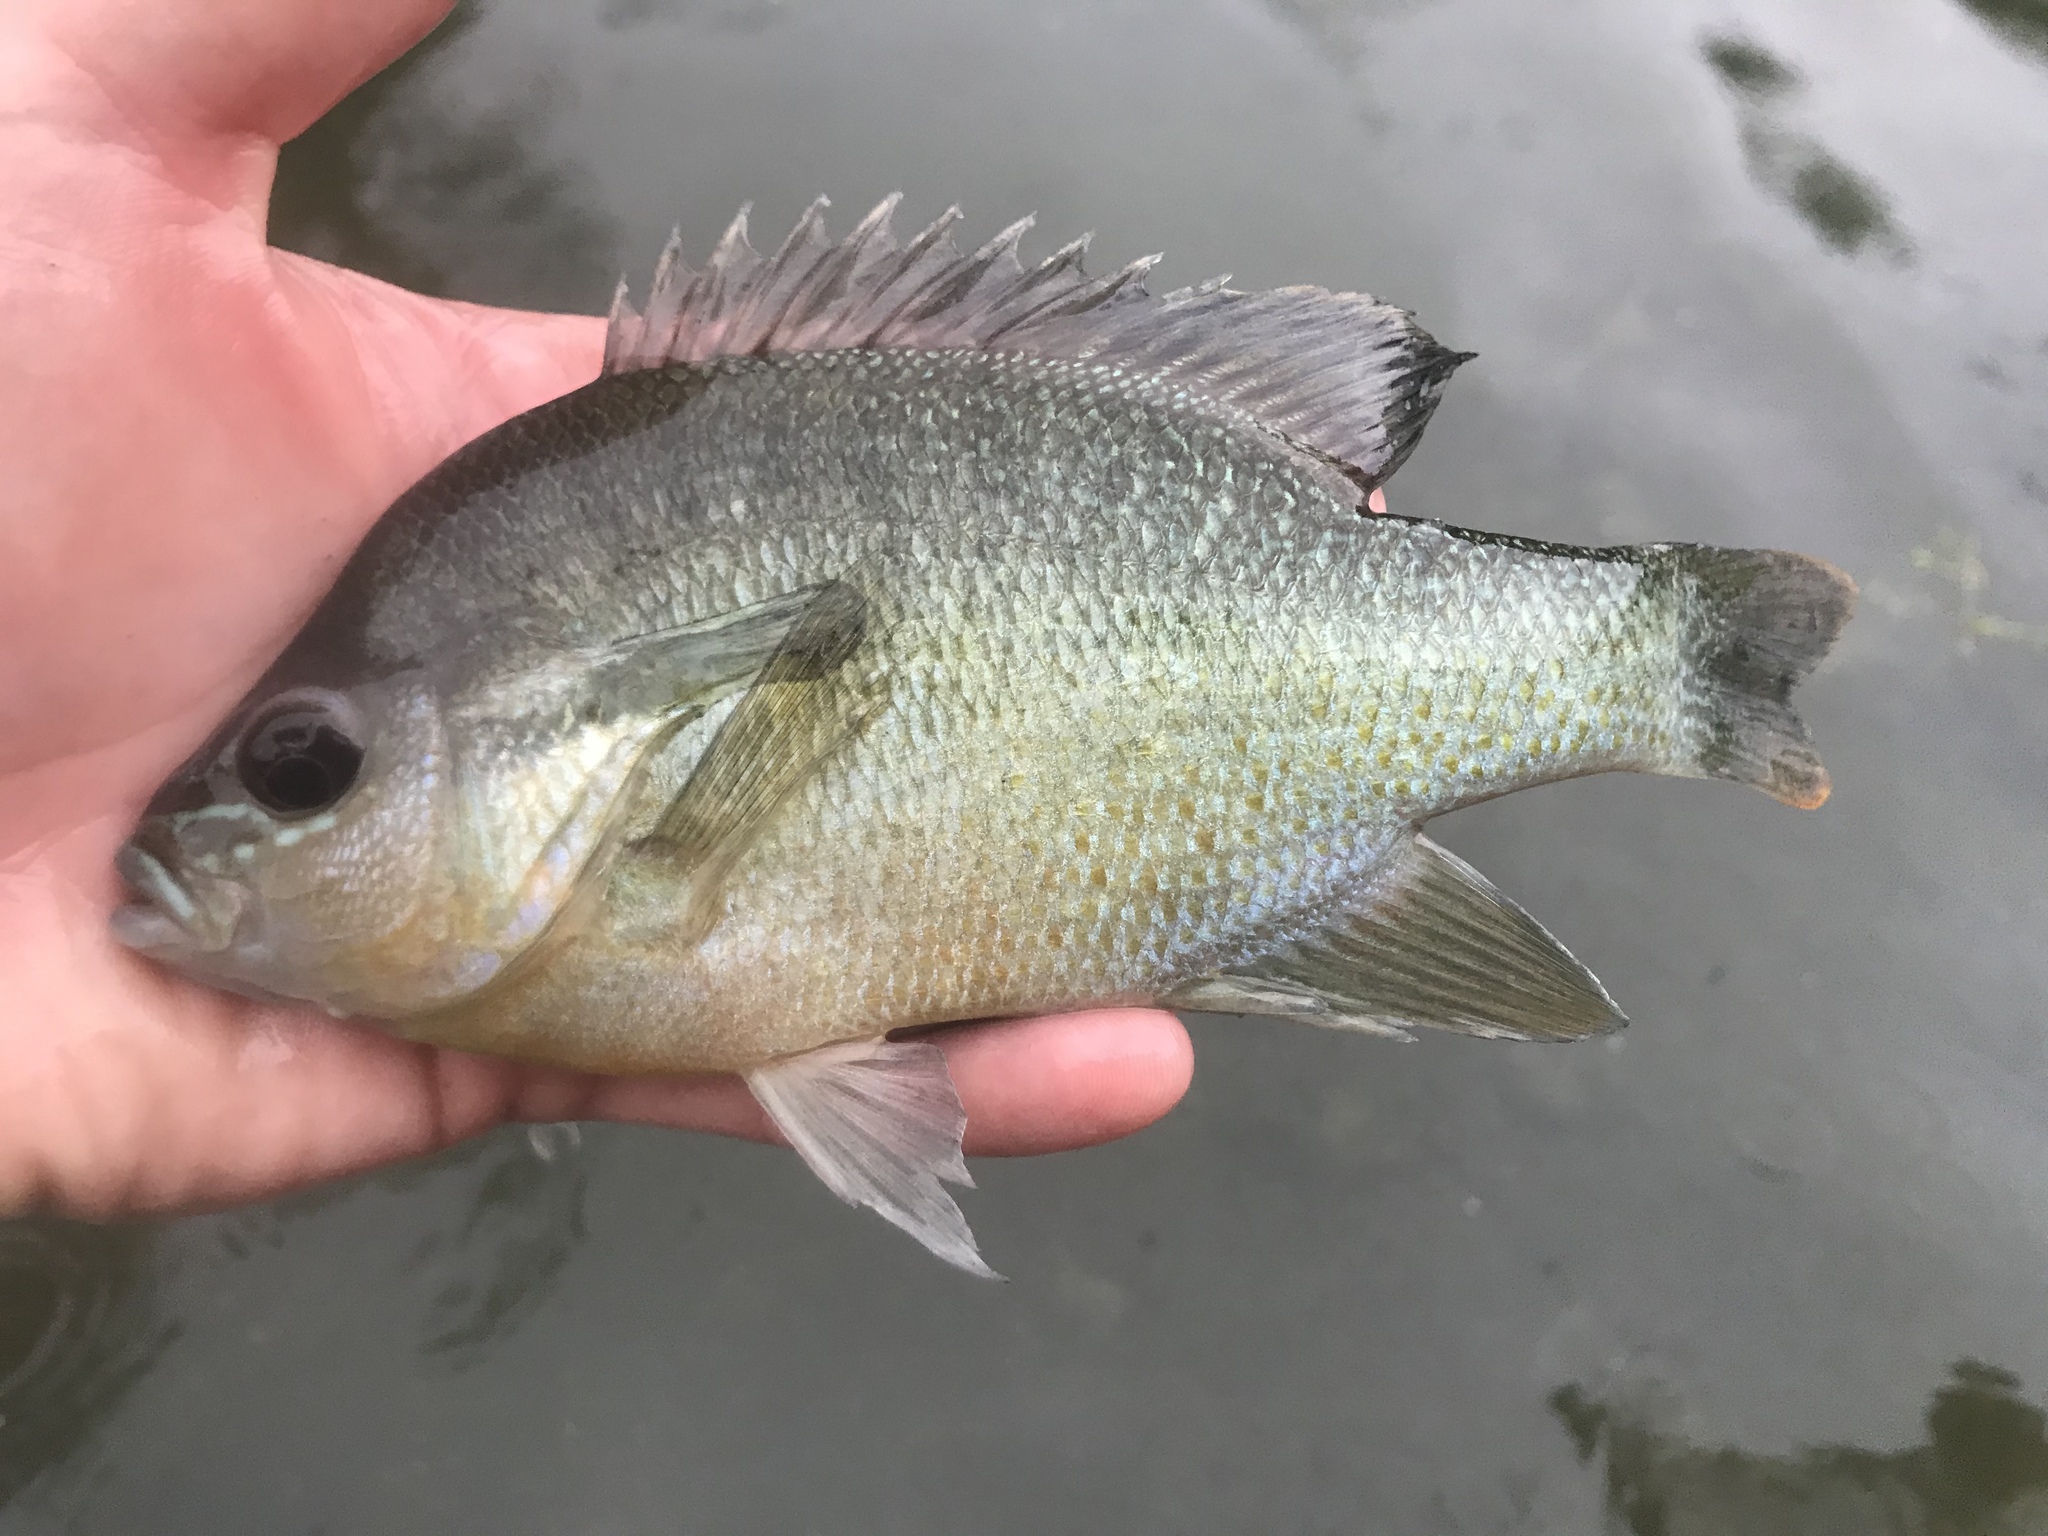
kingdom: Animalia
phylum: Chordata
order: Perciformes
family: Centrarchidae
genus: Lepomis
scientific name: Lepomis auritus
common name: Redbreast sunfish
